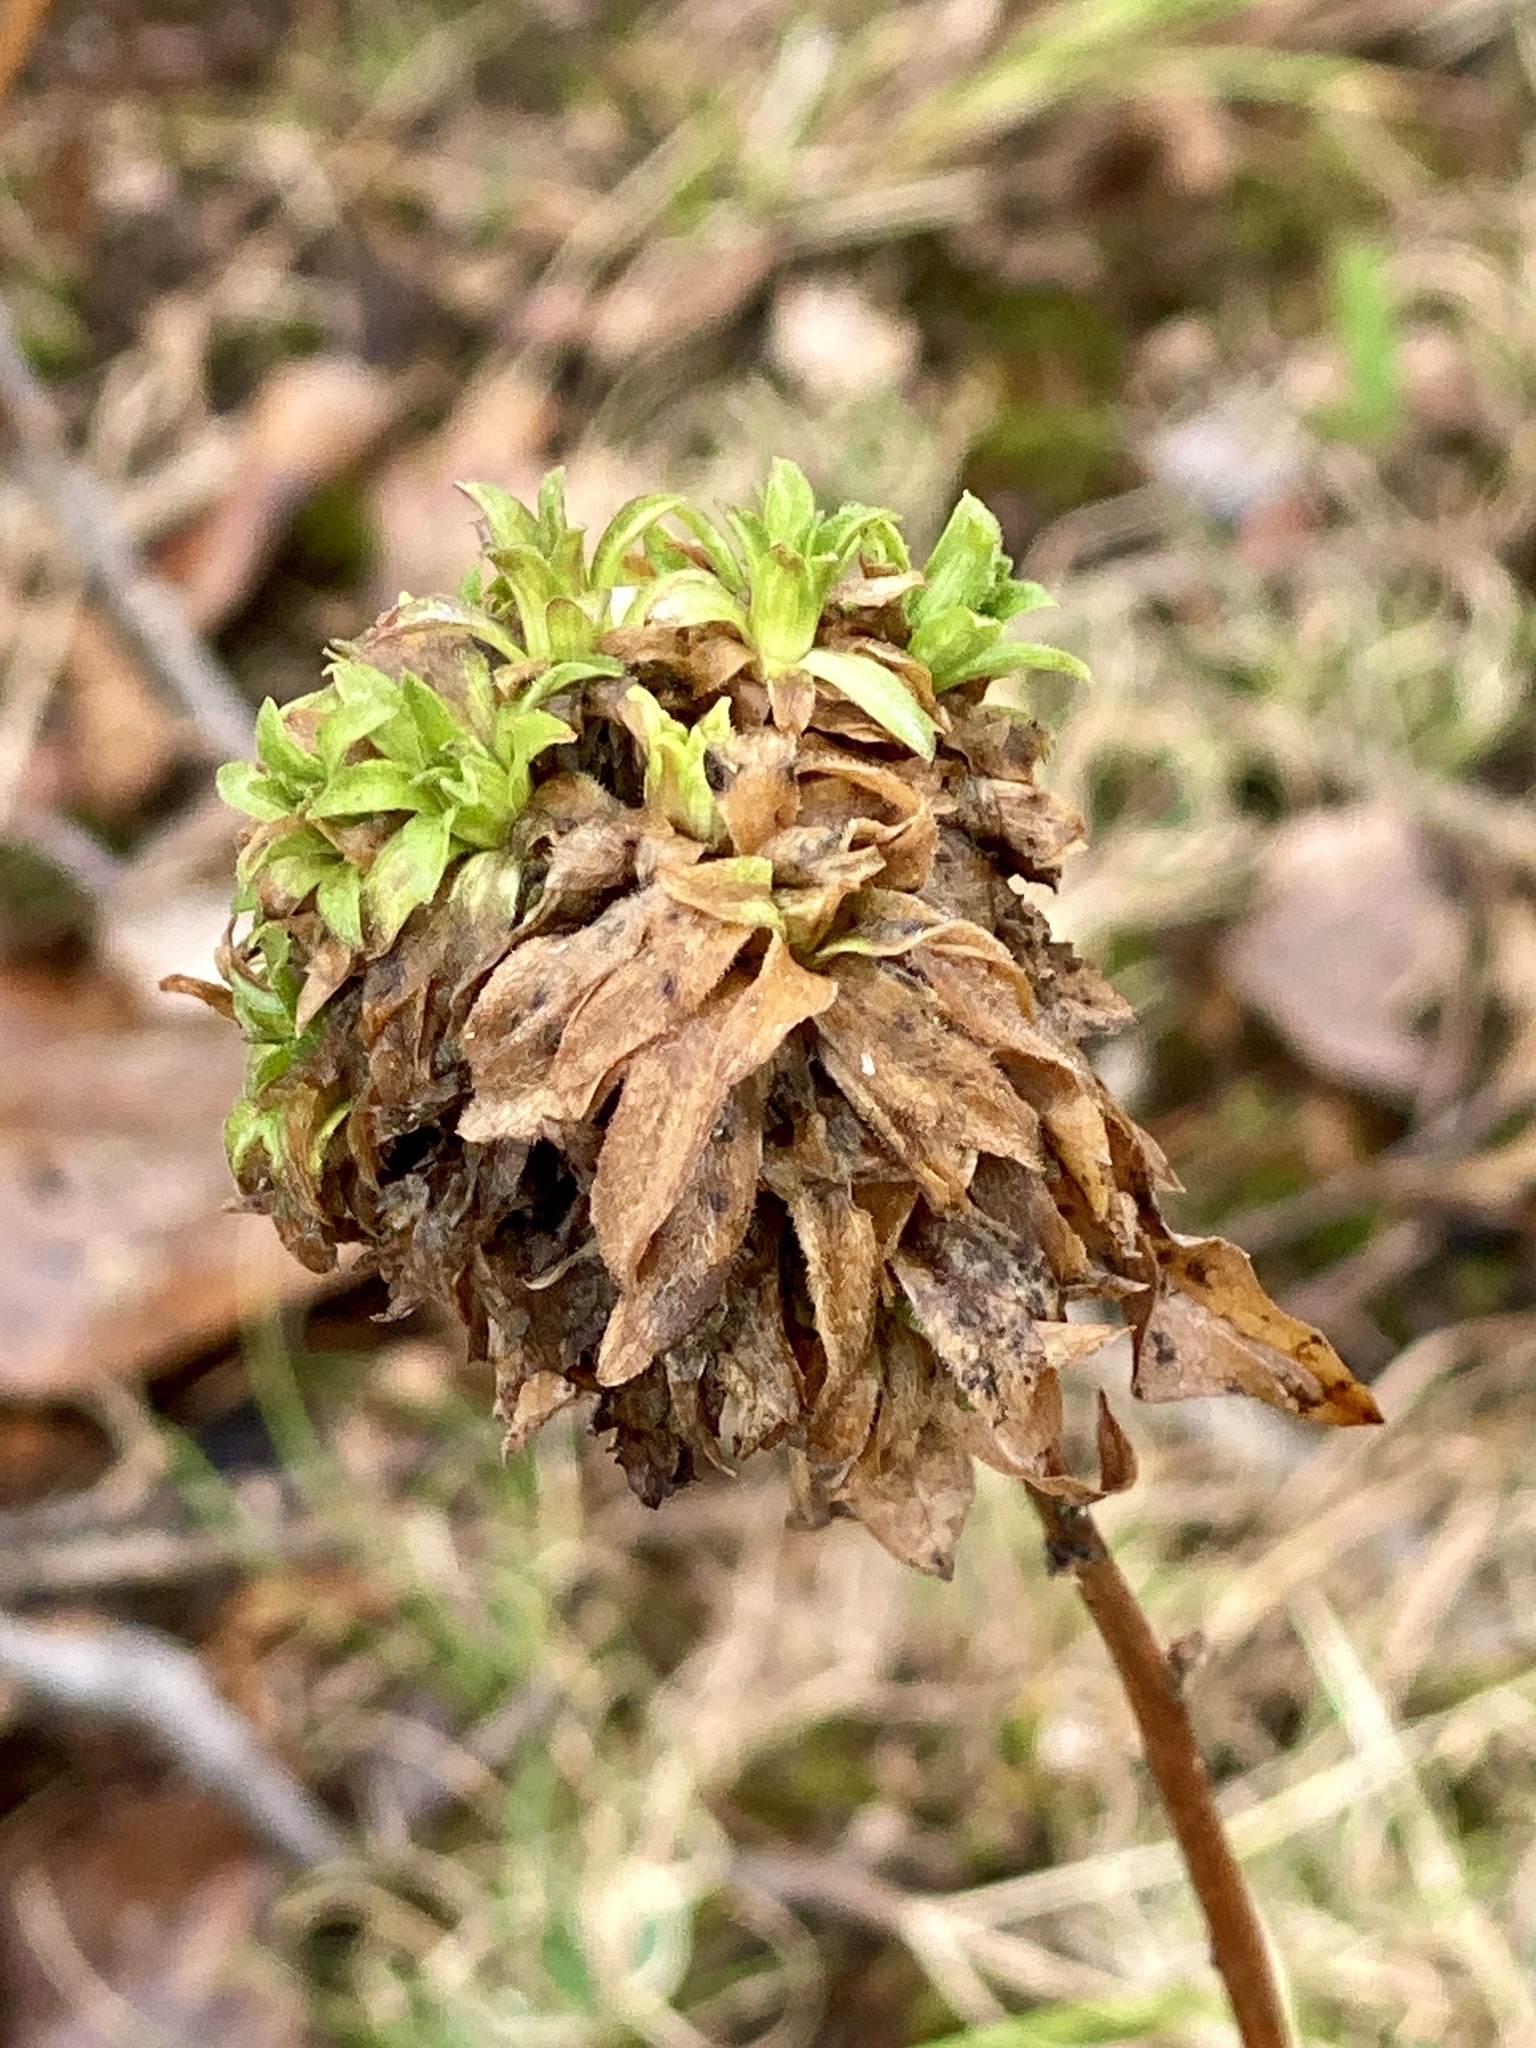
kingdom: Animalia
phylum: Arthropoda
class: Insecta
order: Diptera
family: Cecidomyiidae
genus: Asphondylia
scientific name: Asphondylia monacha
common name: Nun midge
